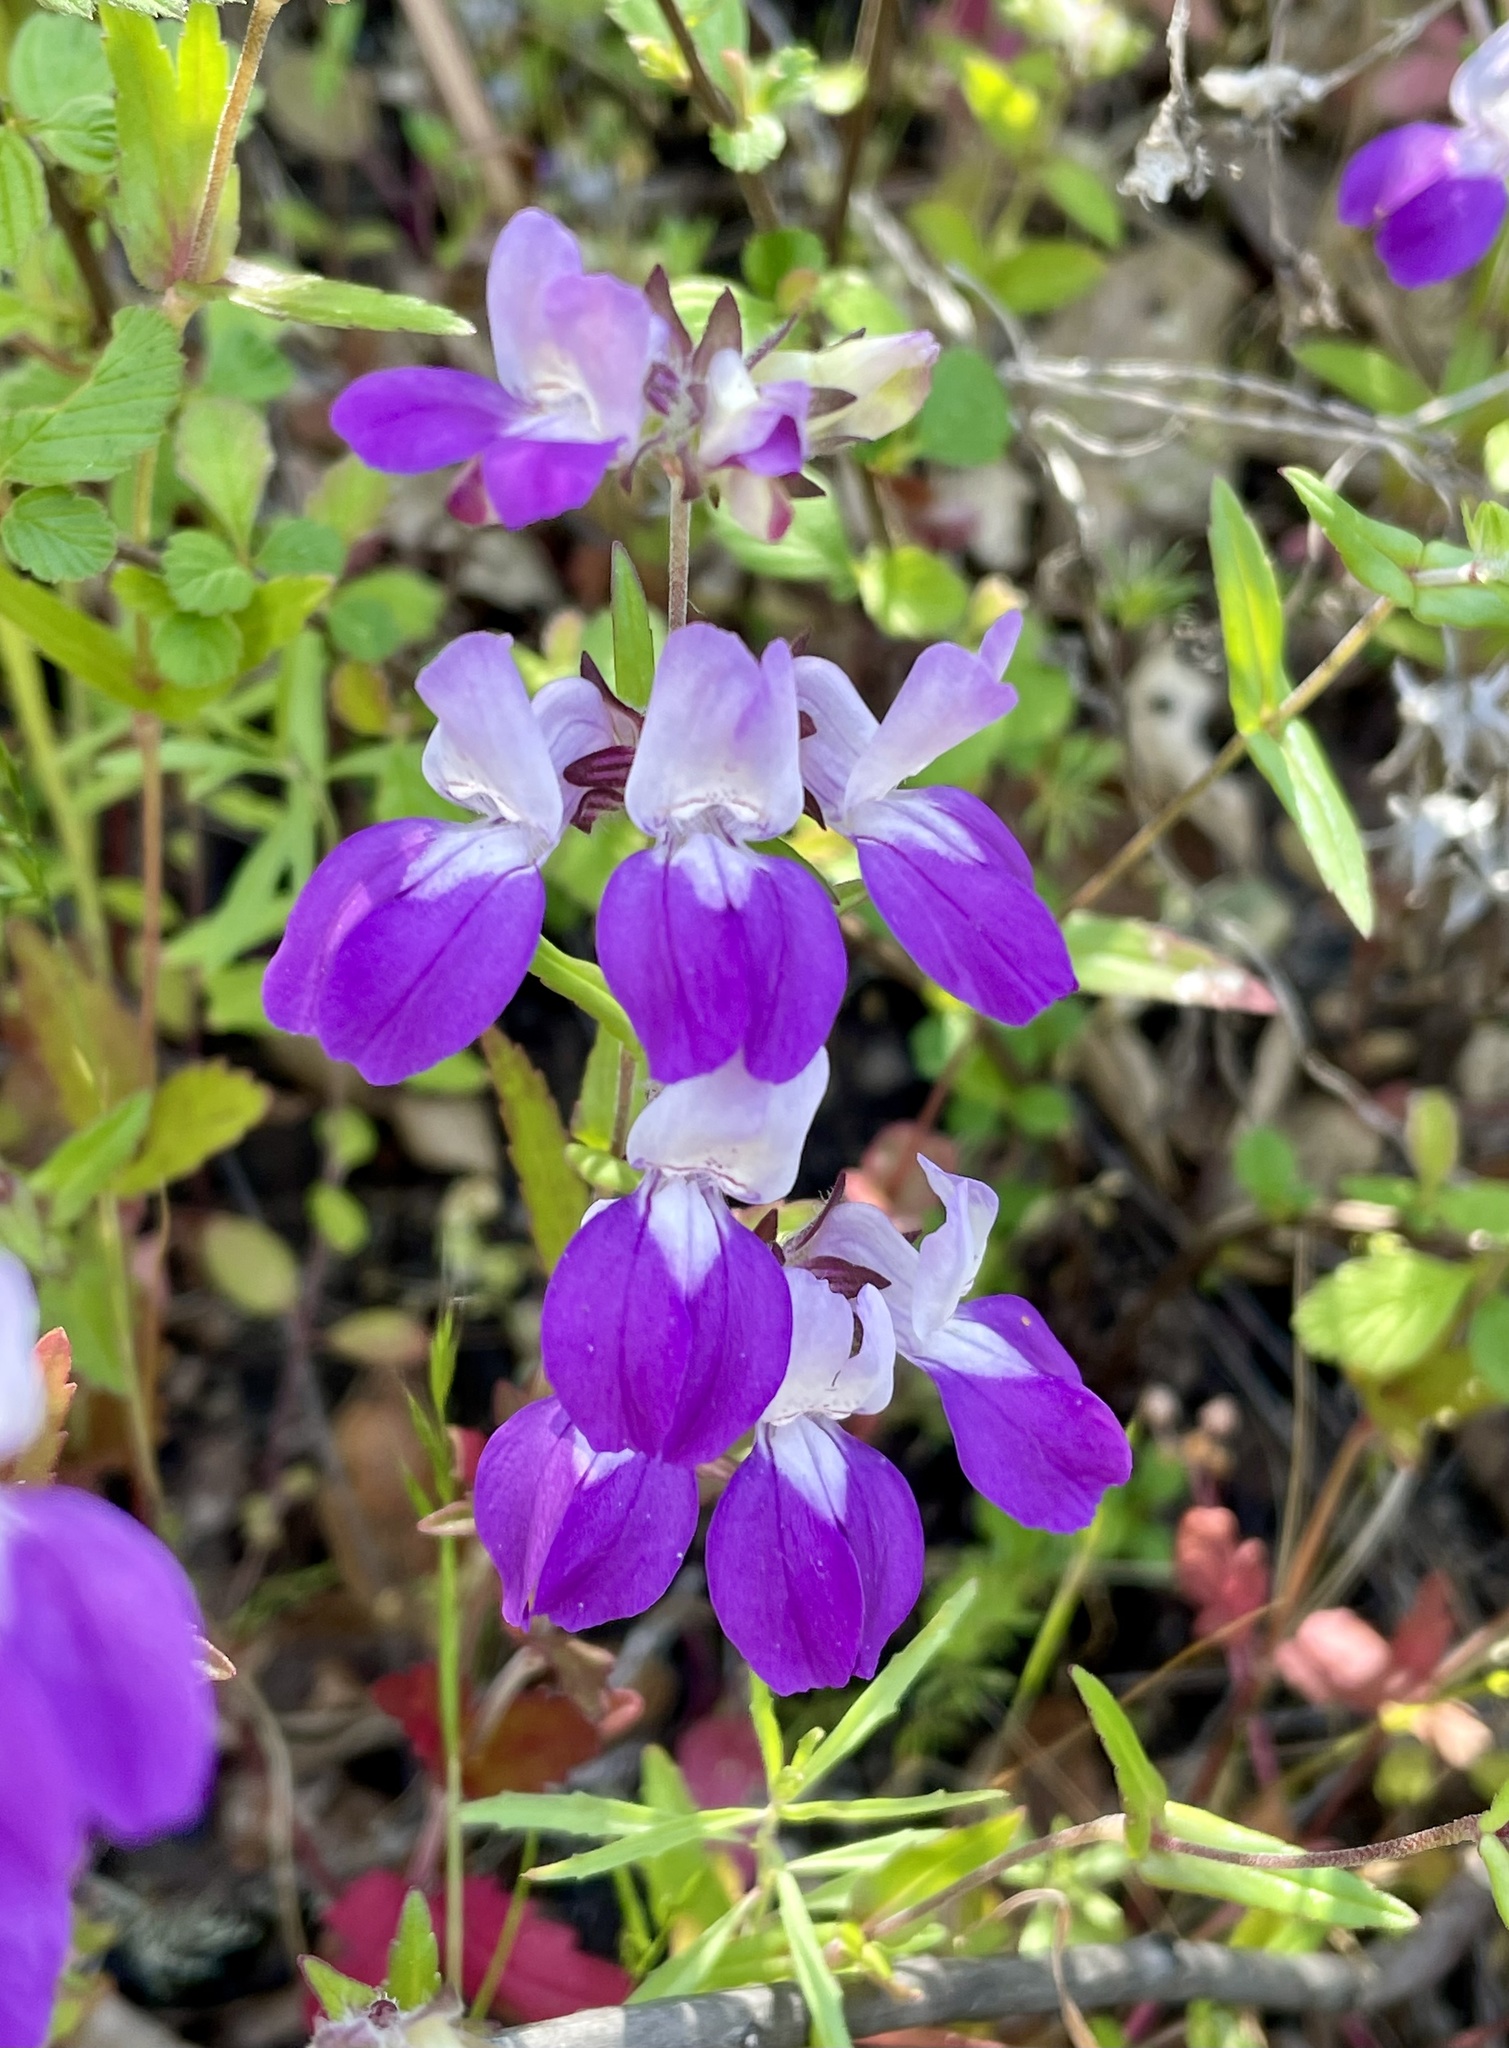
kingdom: Plantae
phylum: Tracheophyta
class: Magnoliopsida
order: Lamiales
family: Plantaginaceae
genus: Collinsia
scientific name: Collinsia heterophylla
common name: Chinese-houses
